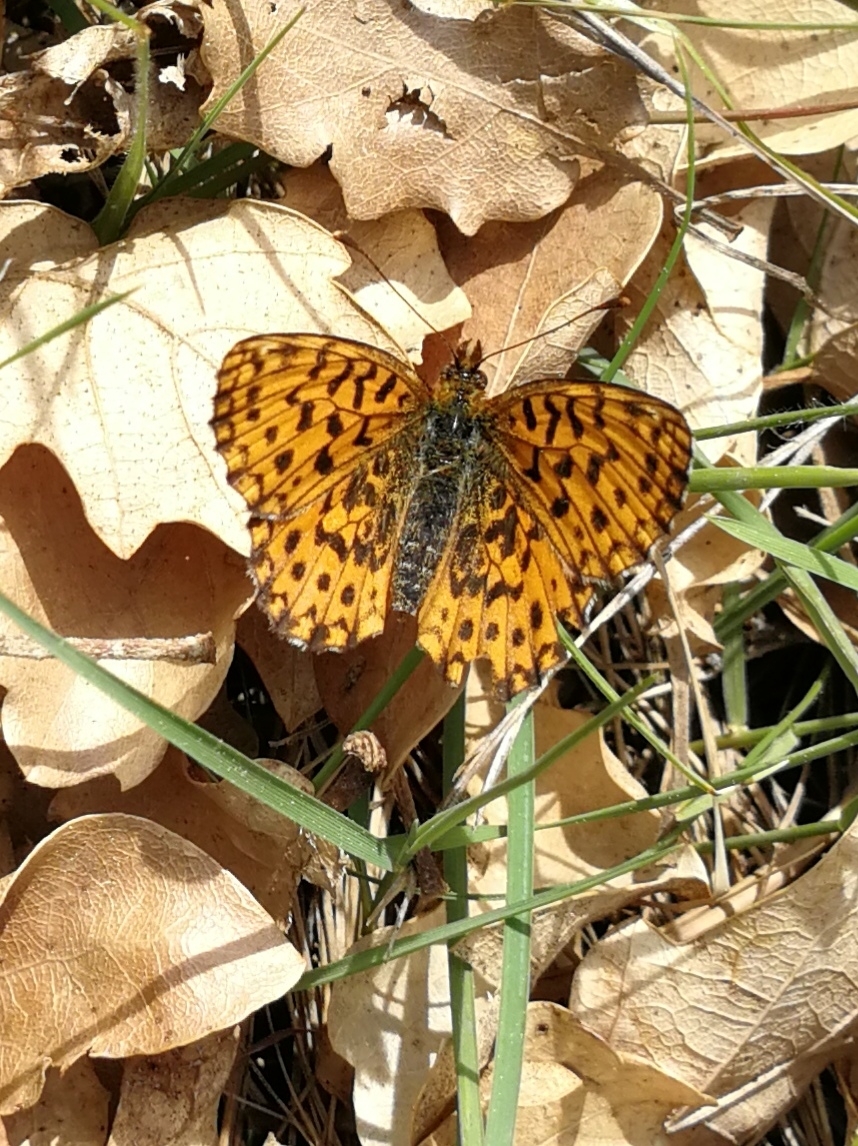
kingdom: Animalia
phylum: Arthropoda
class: Insecta
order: Lepidoptera
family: Nymphalidae
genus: Boloria
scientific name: Boloria dia
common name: Weaver's fritillary
